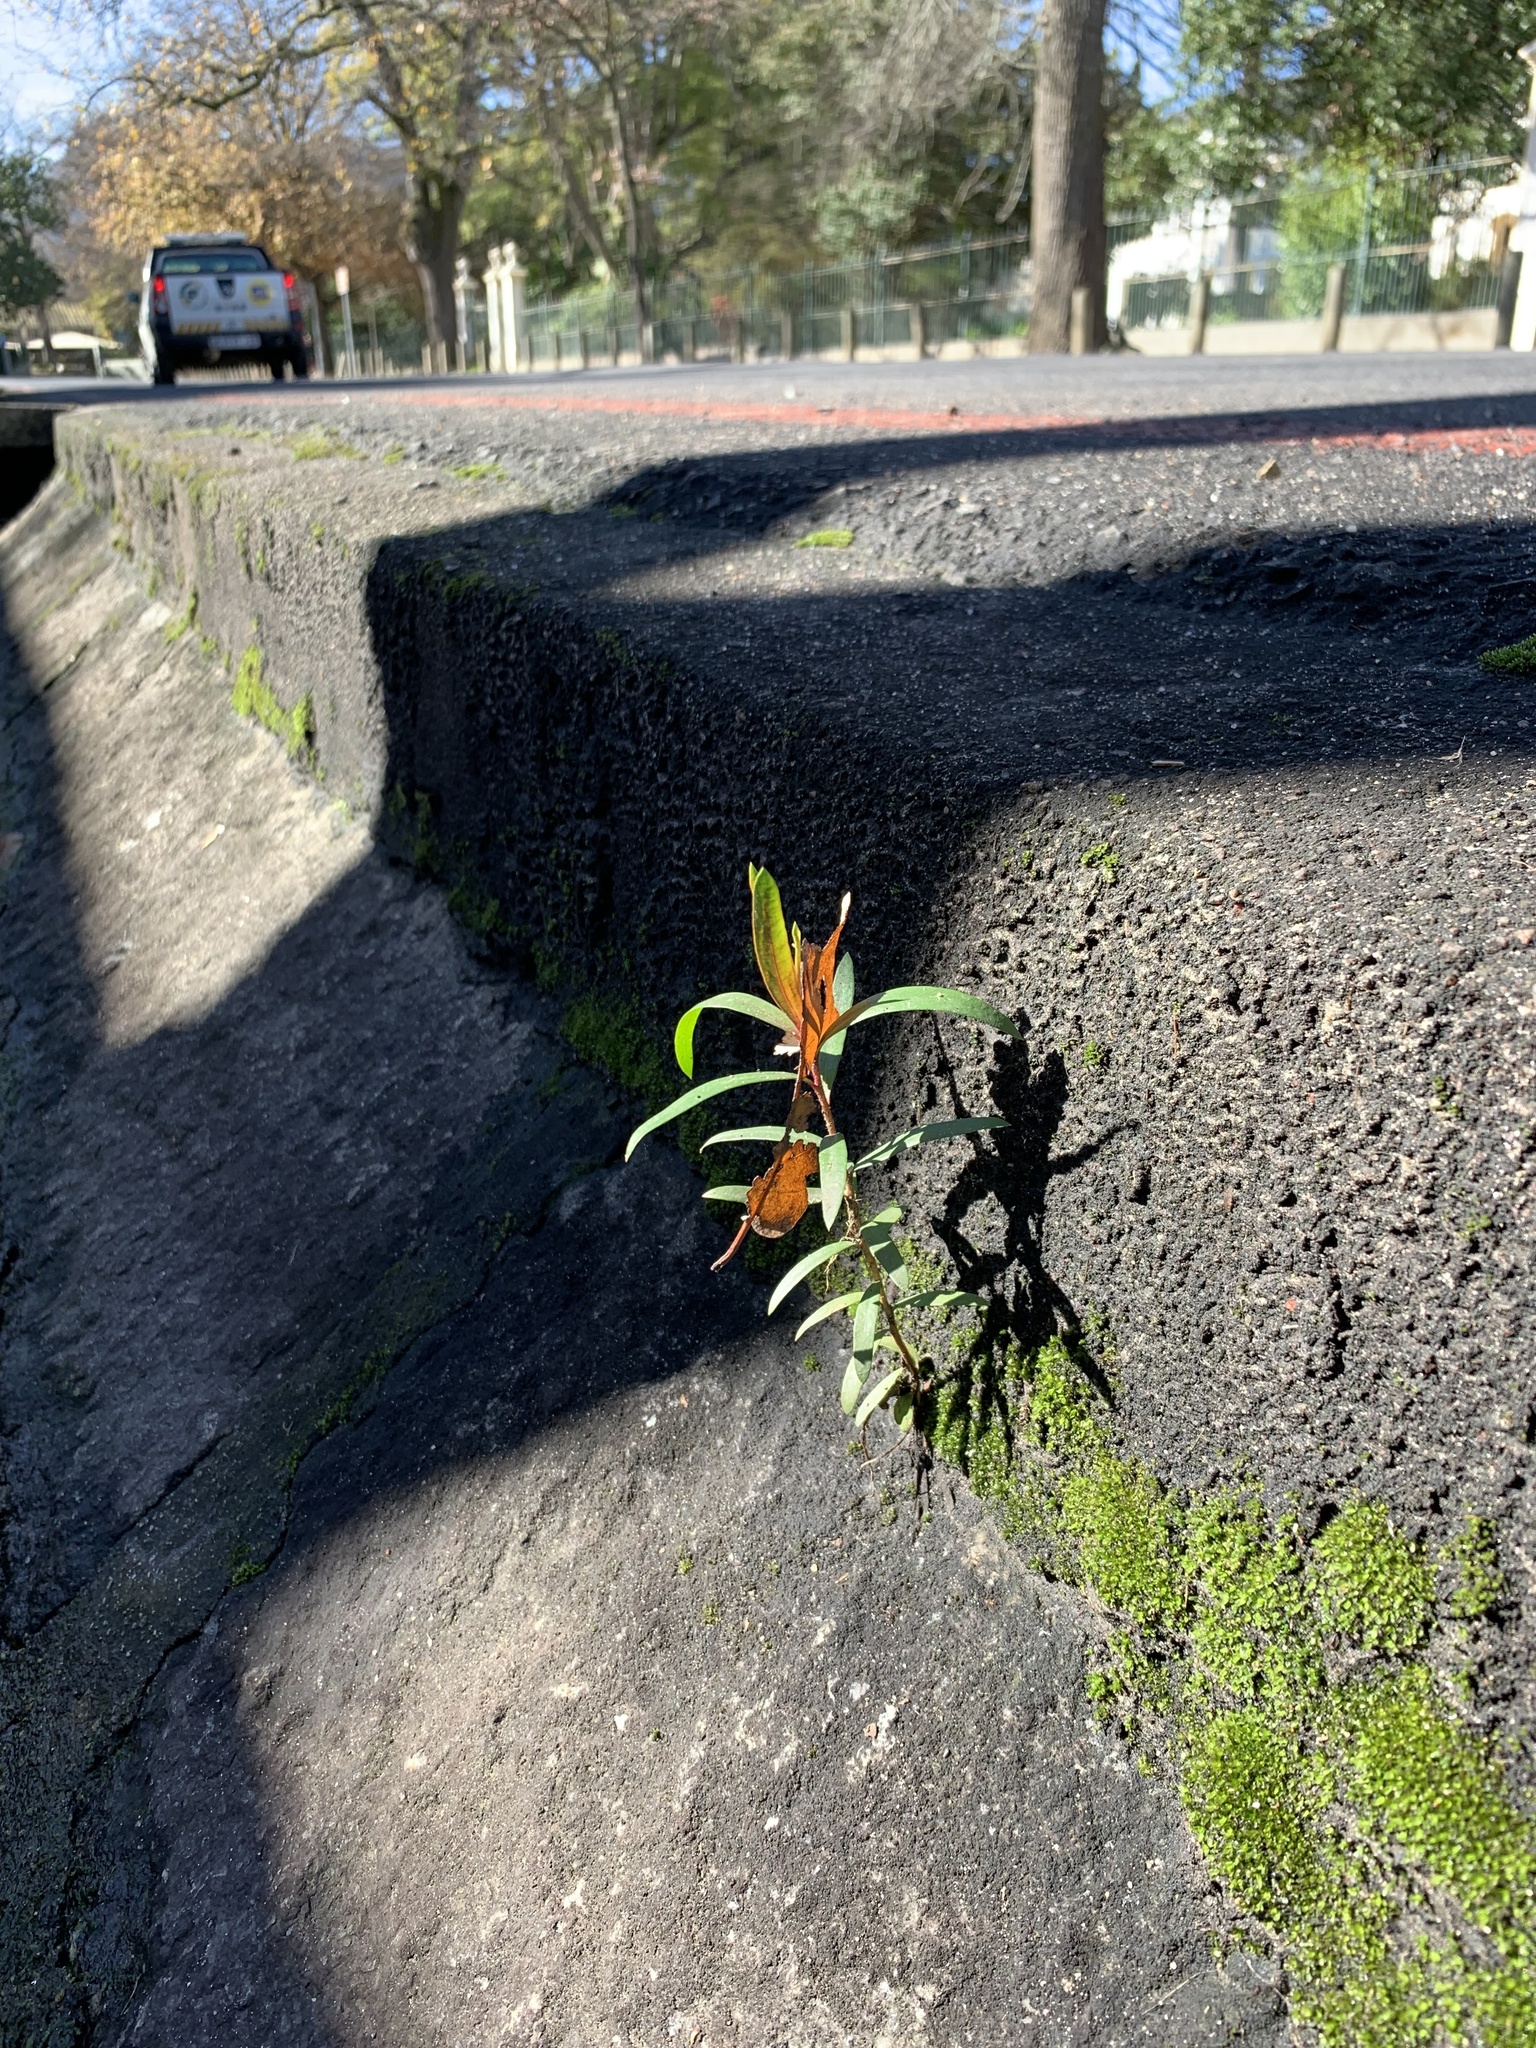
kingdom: Plantae
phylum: Tracheophyta
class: Magnoliopsida
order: Myrtales
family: Myrtaceae
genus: Callistemon
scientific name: Callistemon viminalis
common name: Drooping bottlebrush
